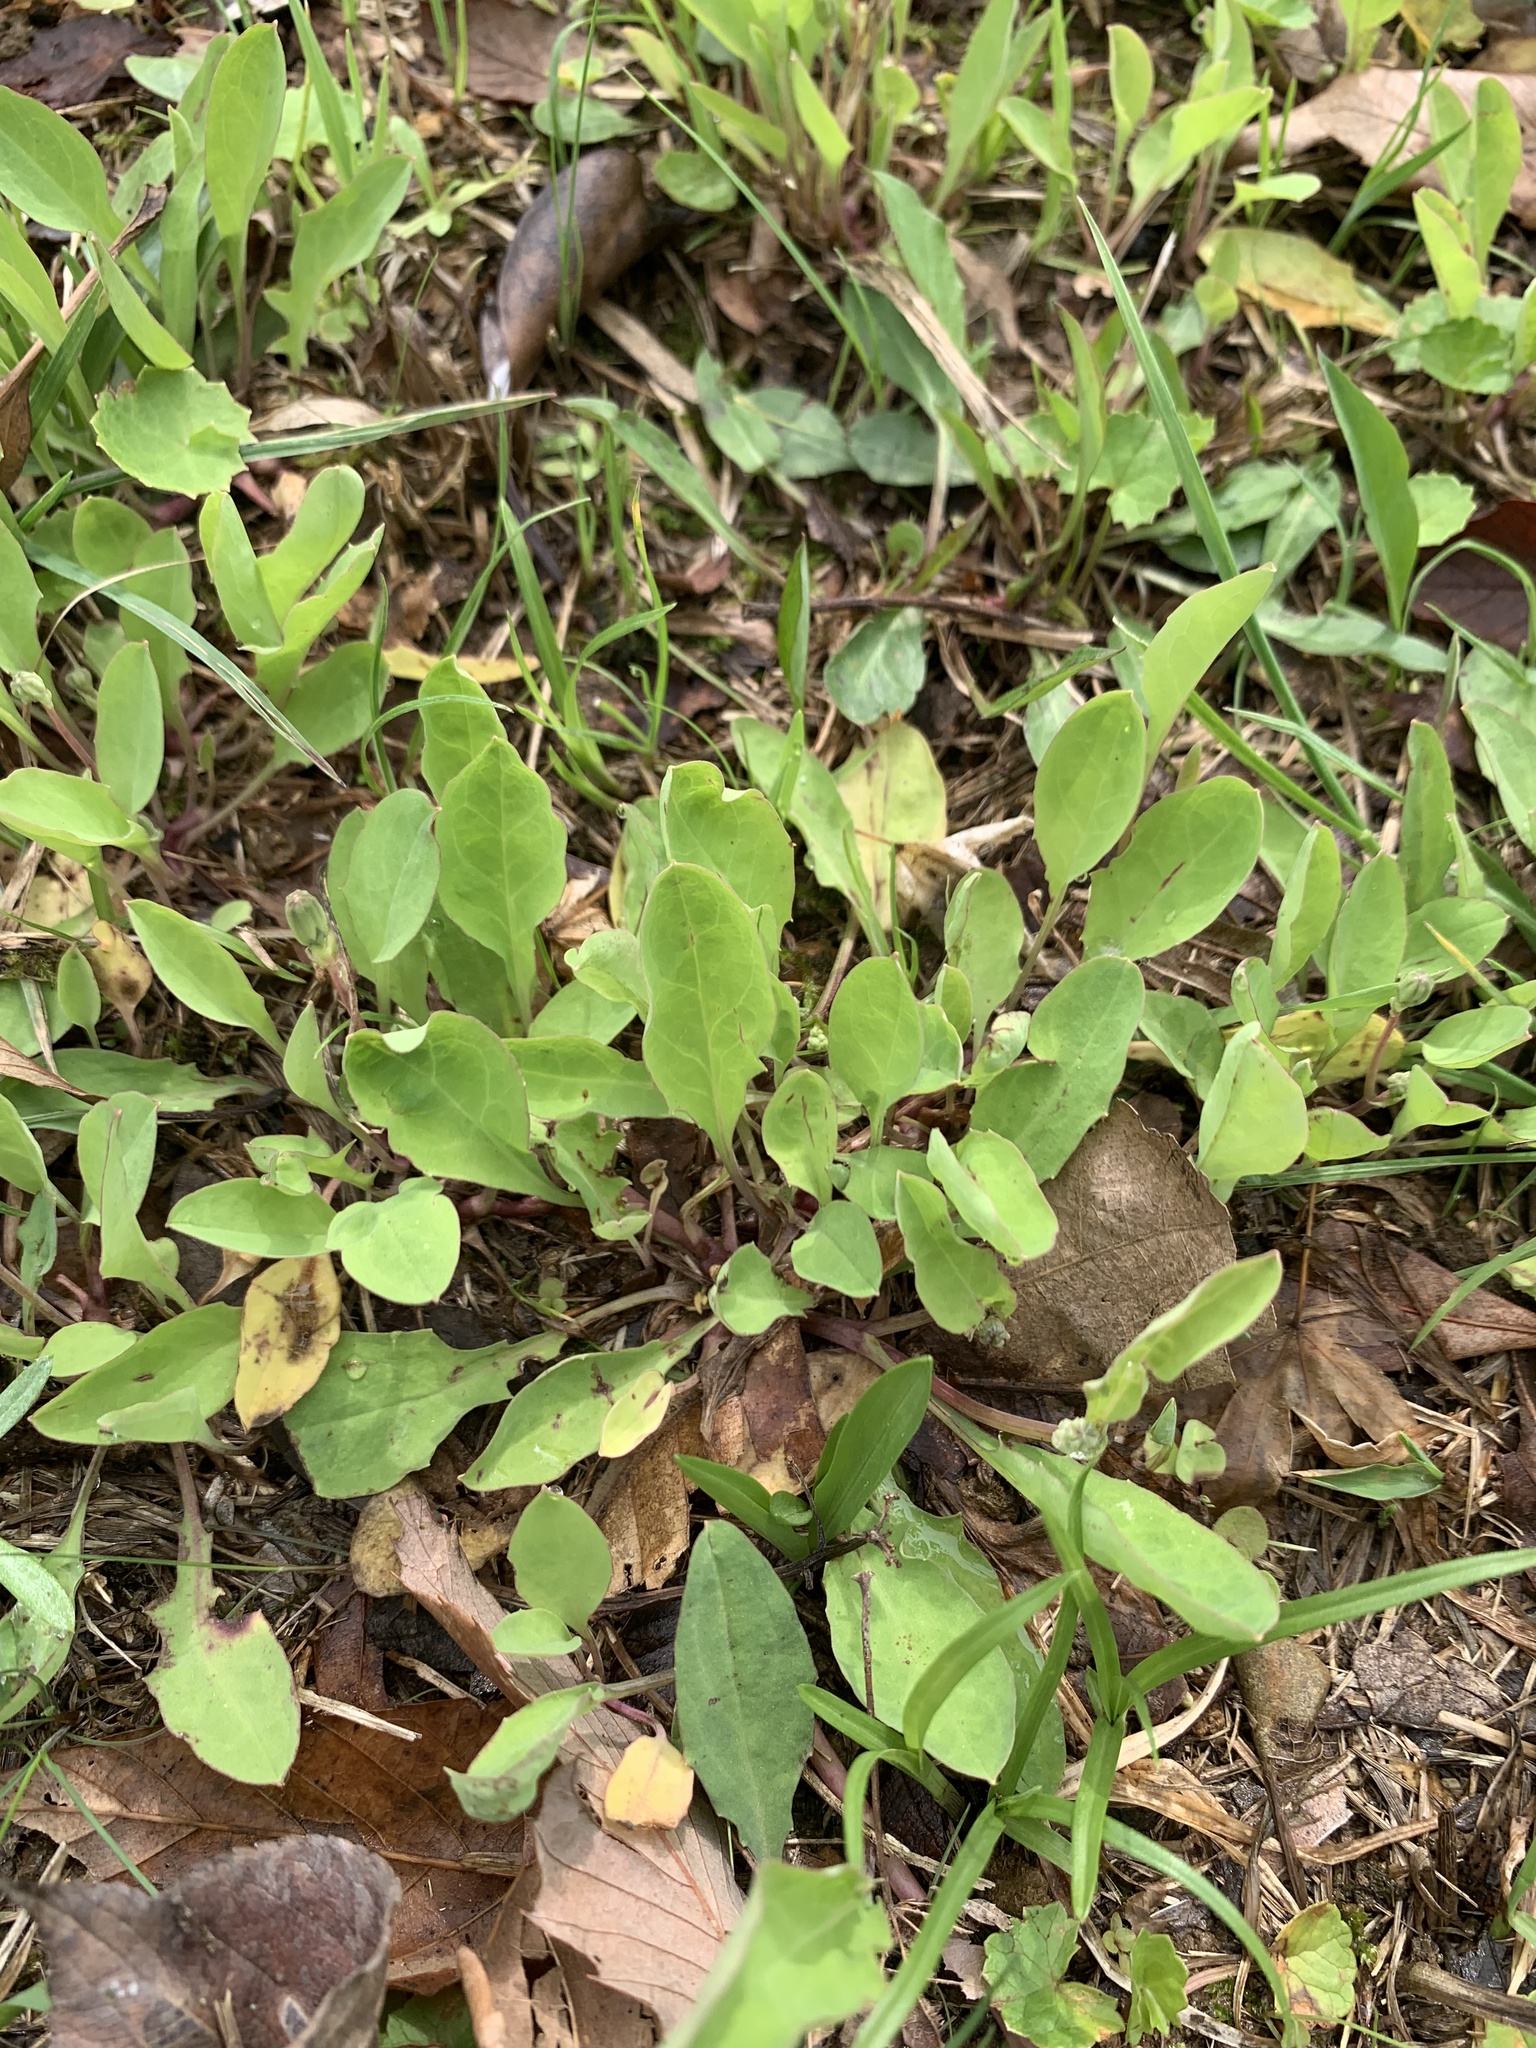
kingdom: Plantae
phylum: Tracheophyta
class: Magnoliopsida
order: Asterales
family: Asteraceae
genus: Ixeris
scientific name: Ixeris japonica
